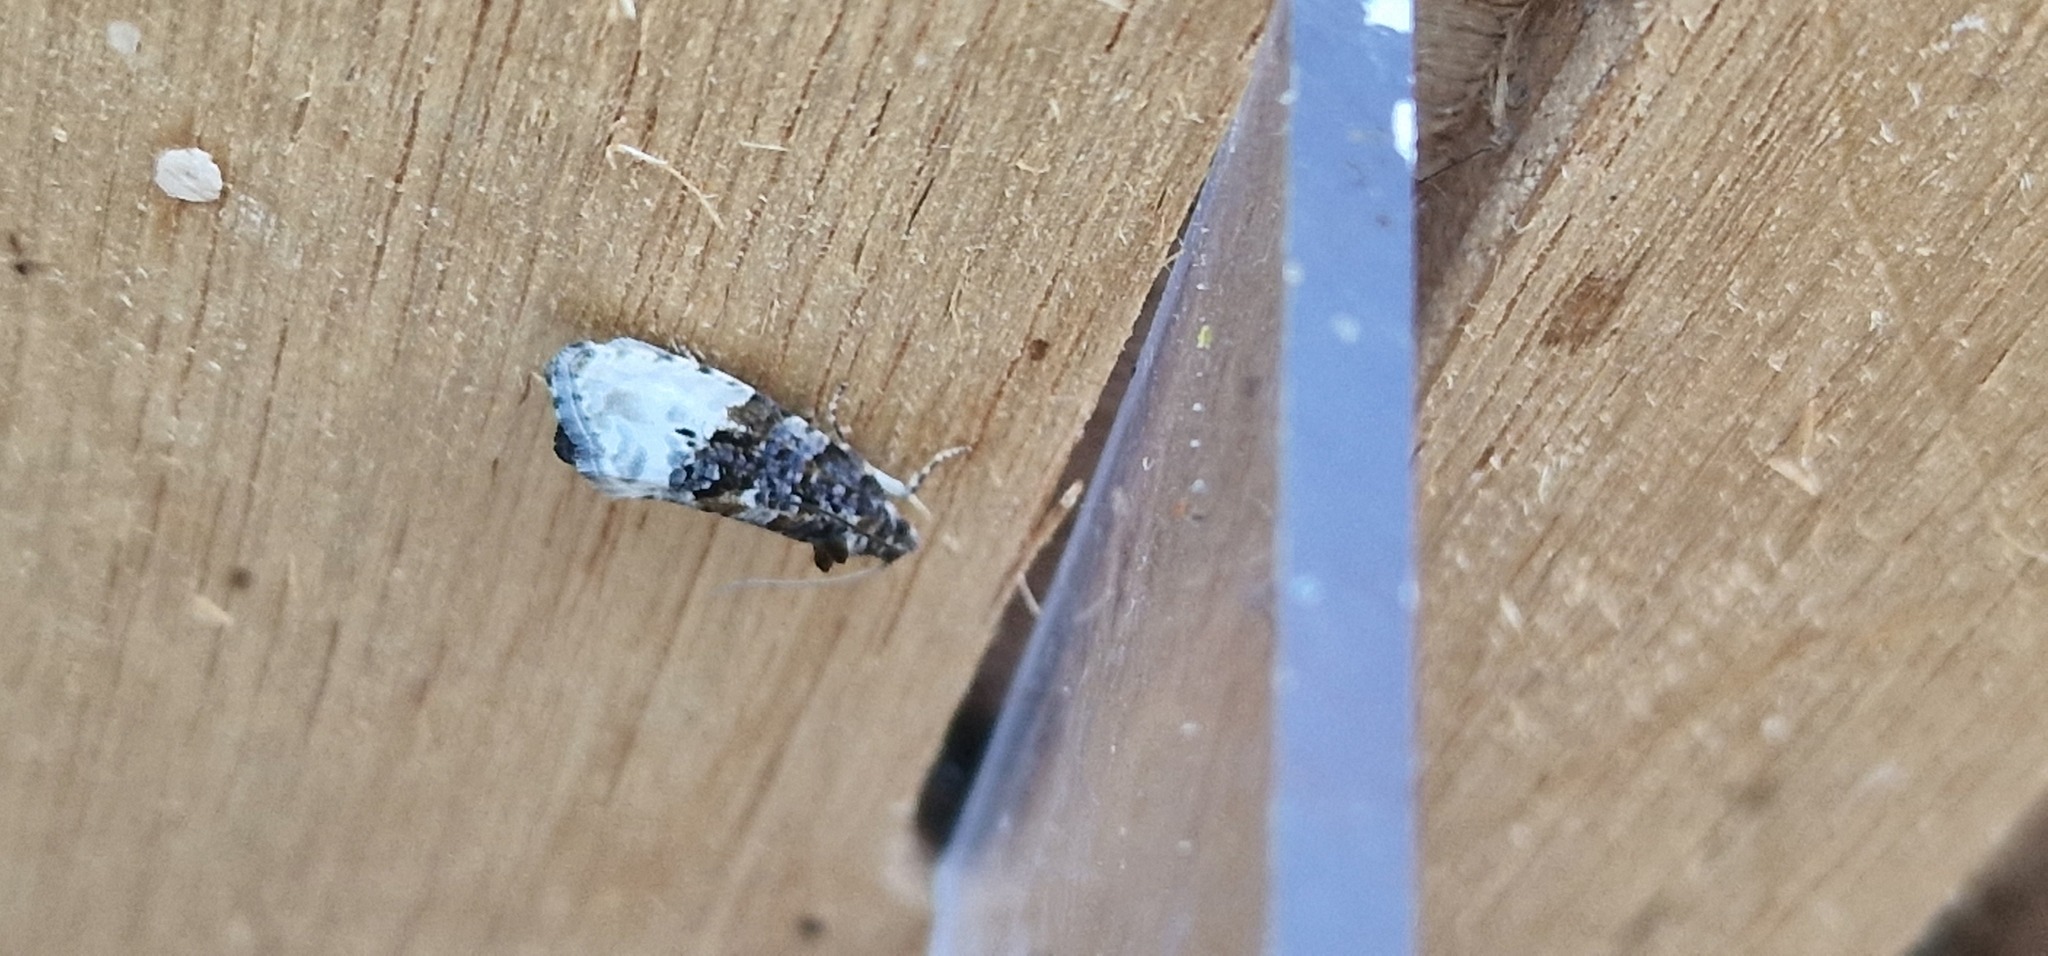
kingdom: Animalia
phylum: Arthropoda
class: Insecta
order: Lepidoptera
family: Tortricidae
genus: Hedya
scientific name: Hedya nubiferana
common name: Marbled orchard tortrix
